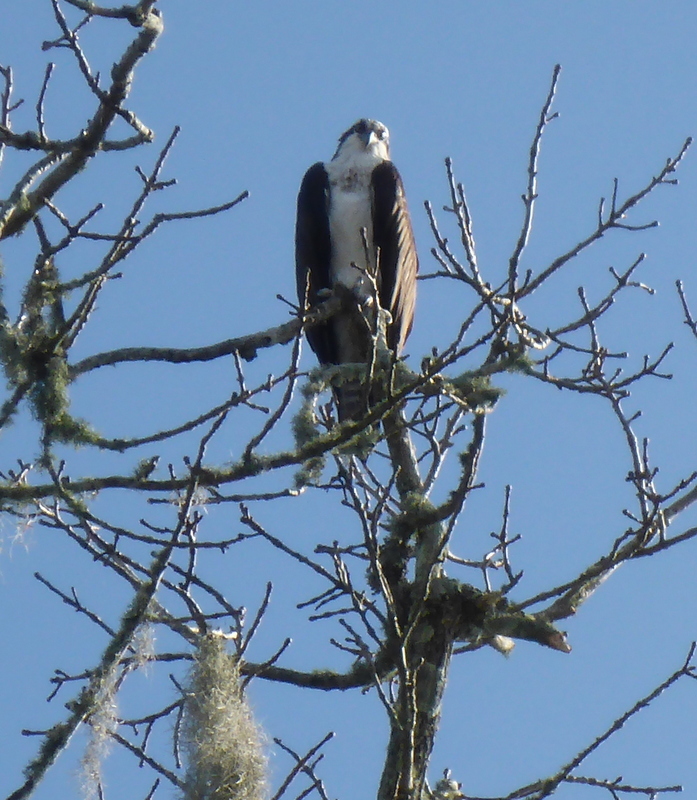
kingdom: Animalia
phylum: Chordata
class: Aves
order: Accipitriformes
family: Pandionidae
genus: Pandion
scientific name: Pandion haliaetus
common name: Osprey
